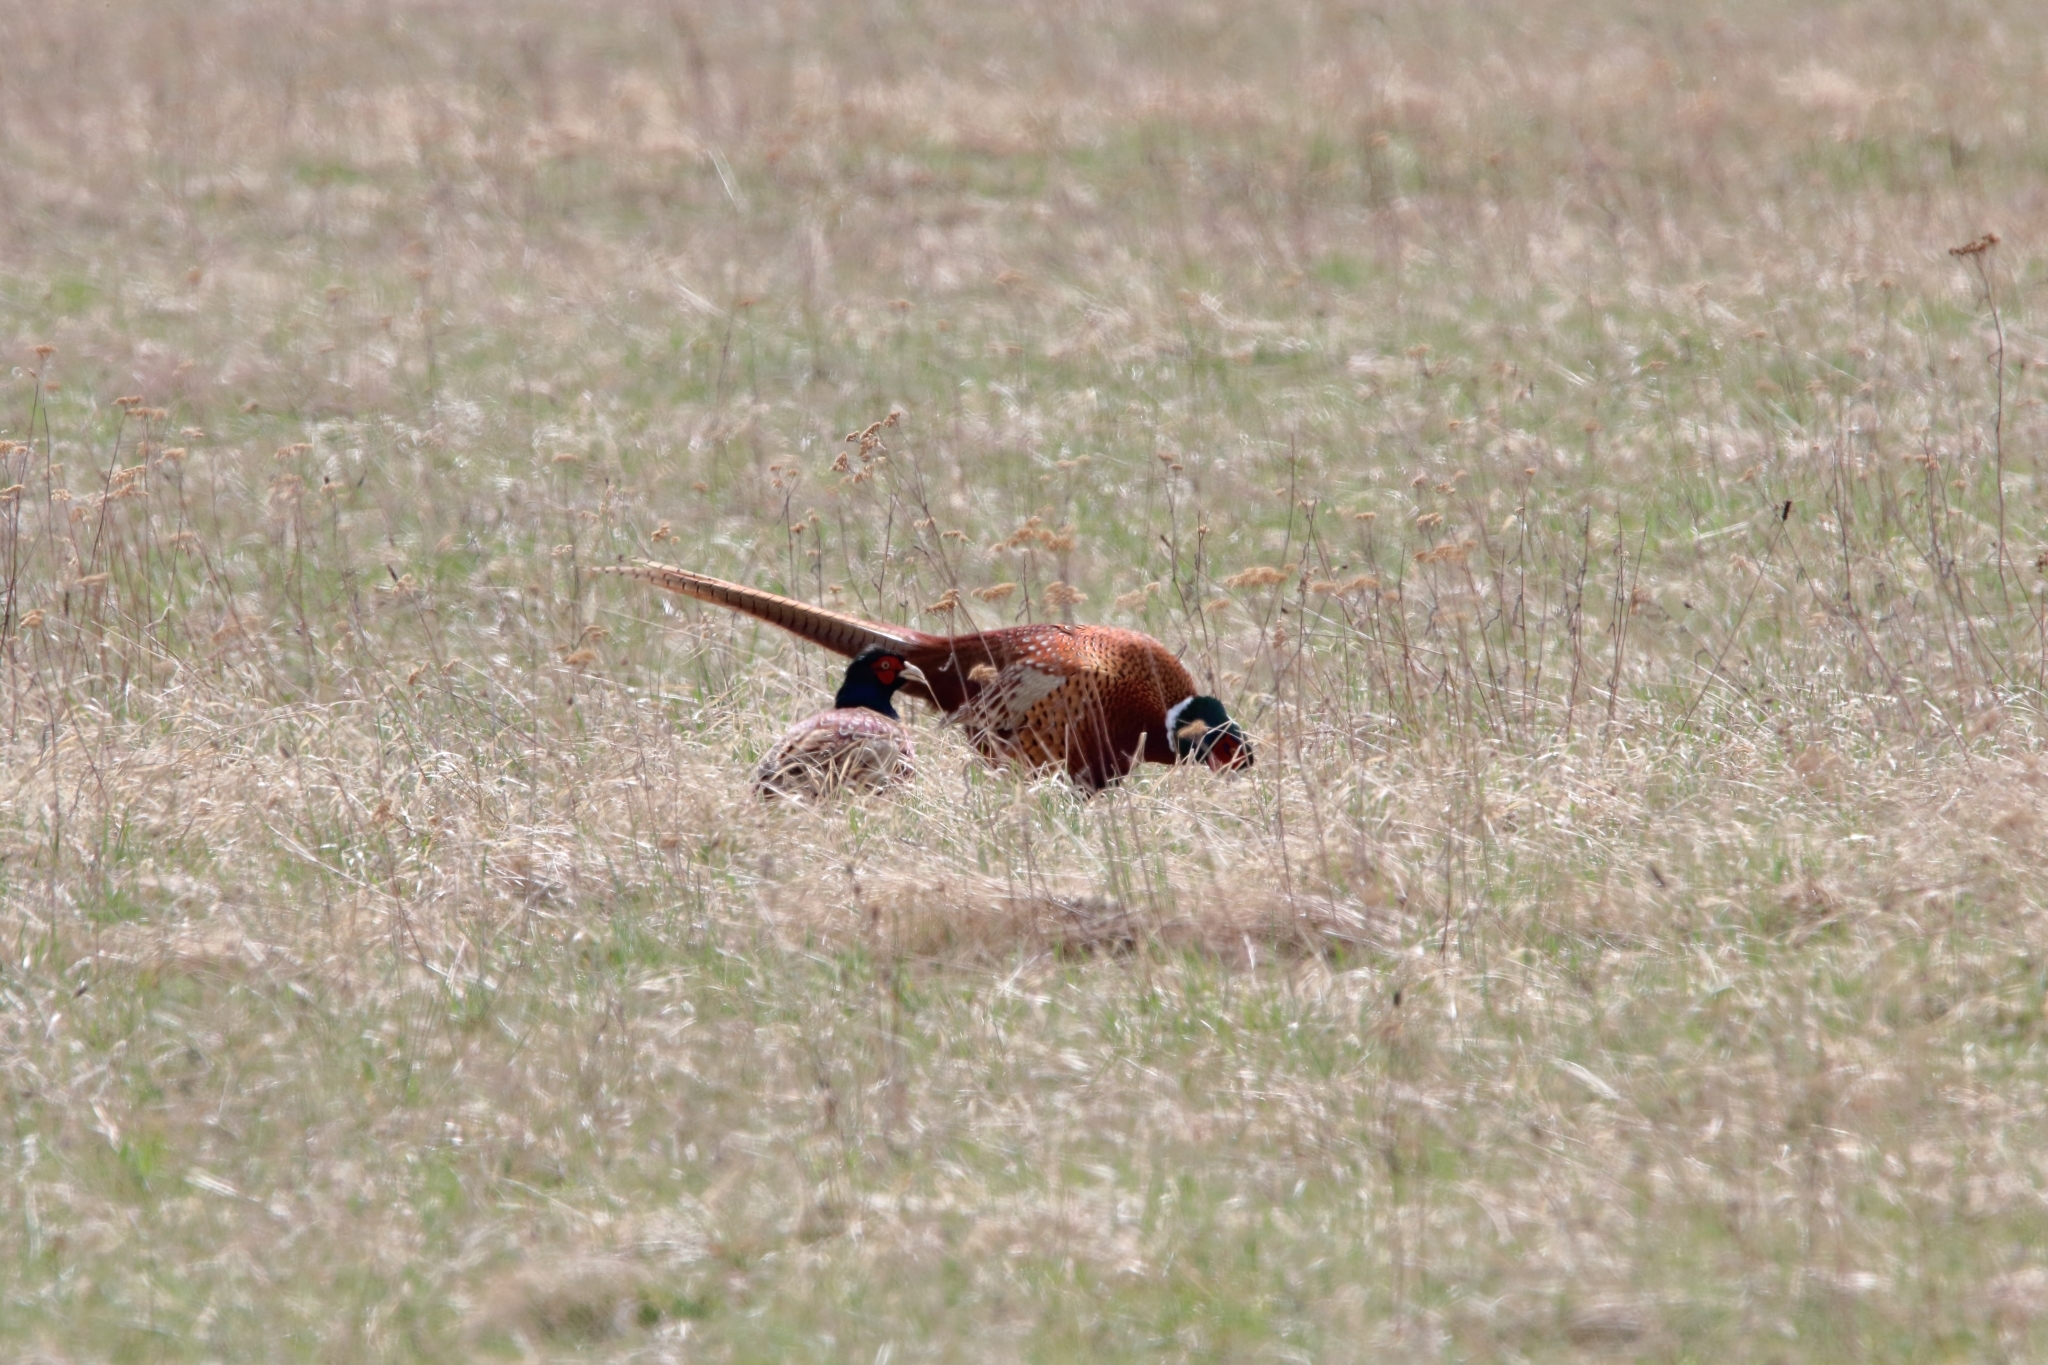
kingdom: Animalia
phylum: Chordata
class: Aves
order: Galliformes
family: Phasianidae
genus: Phasianus
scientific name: Phasianus colchicus
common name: Common pheasant
